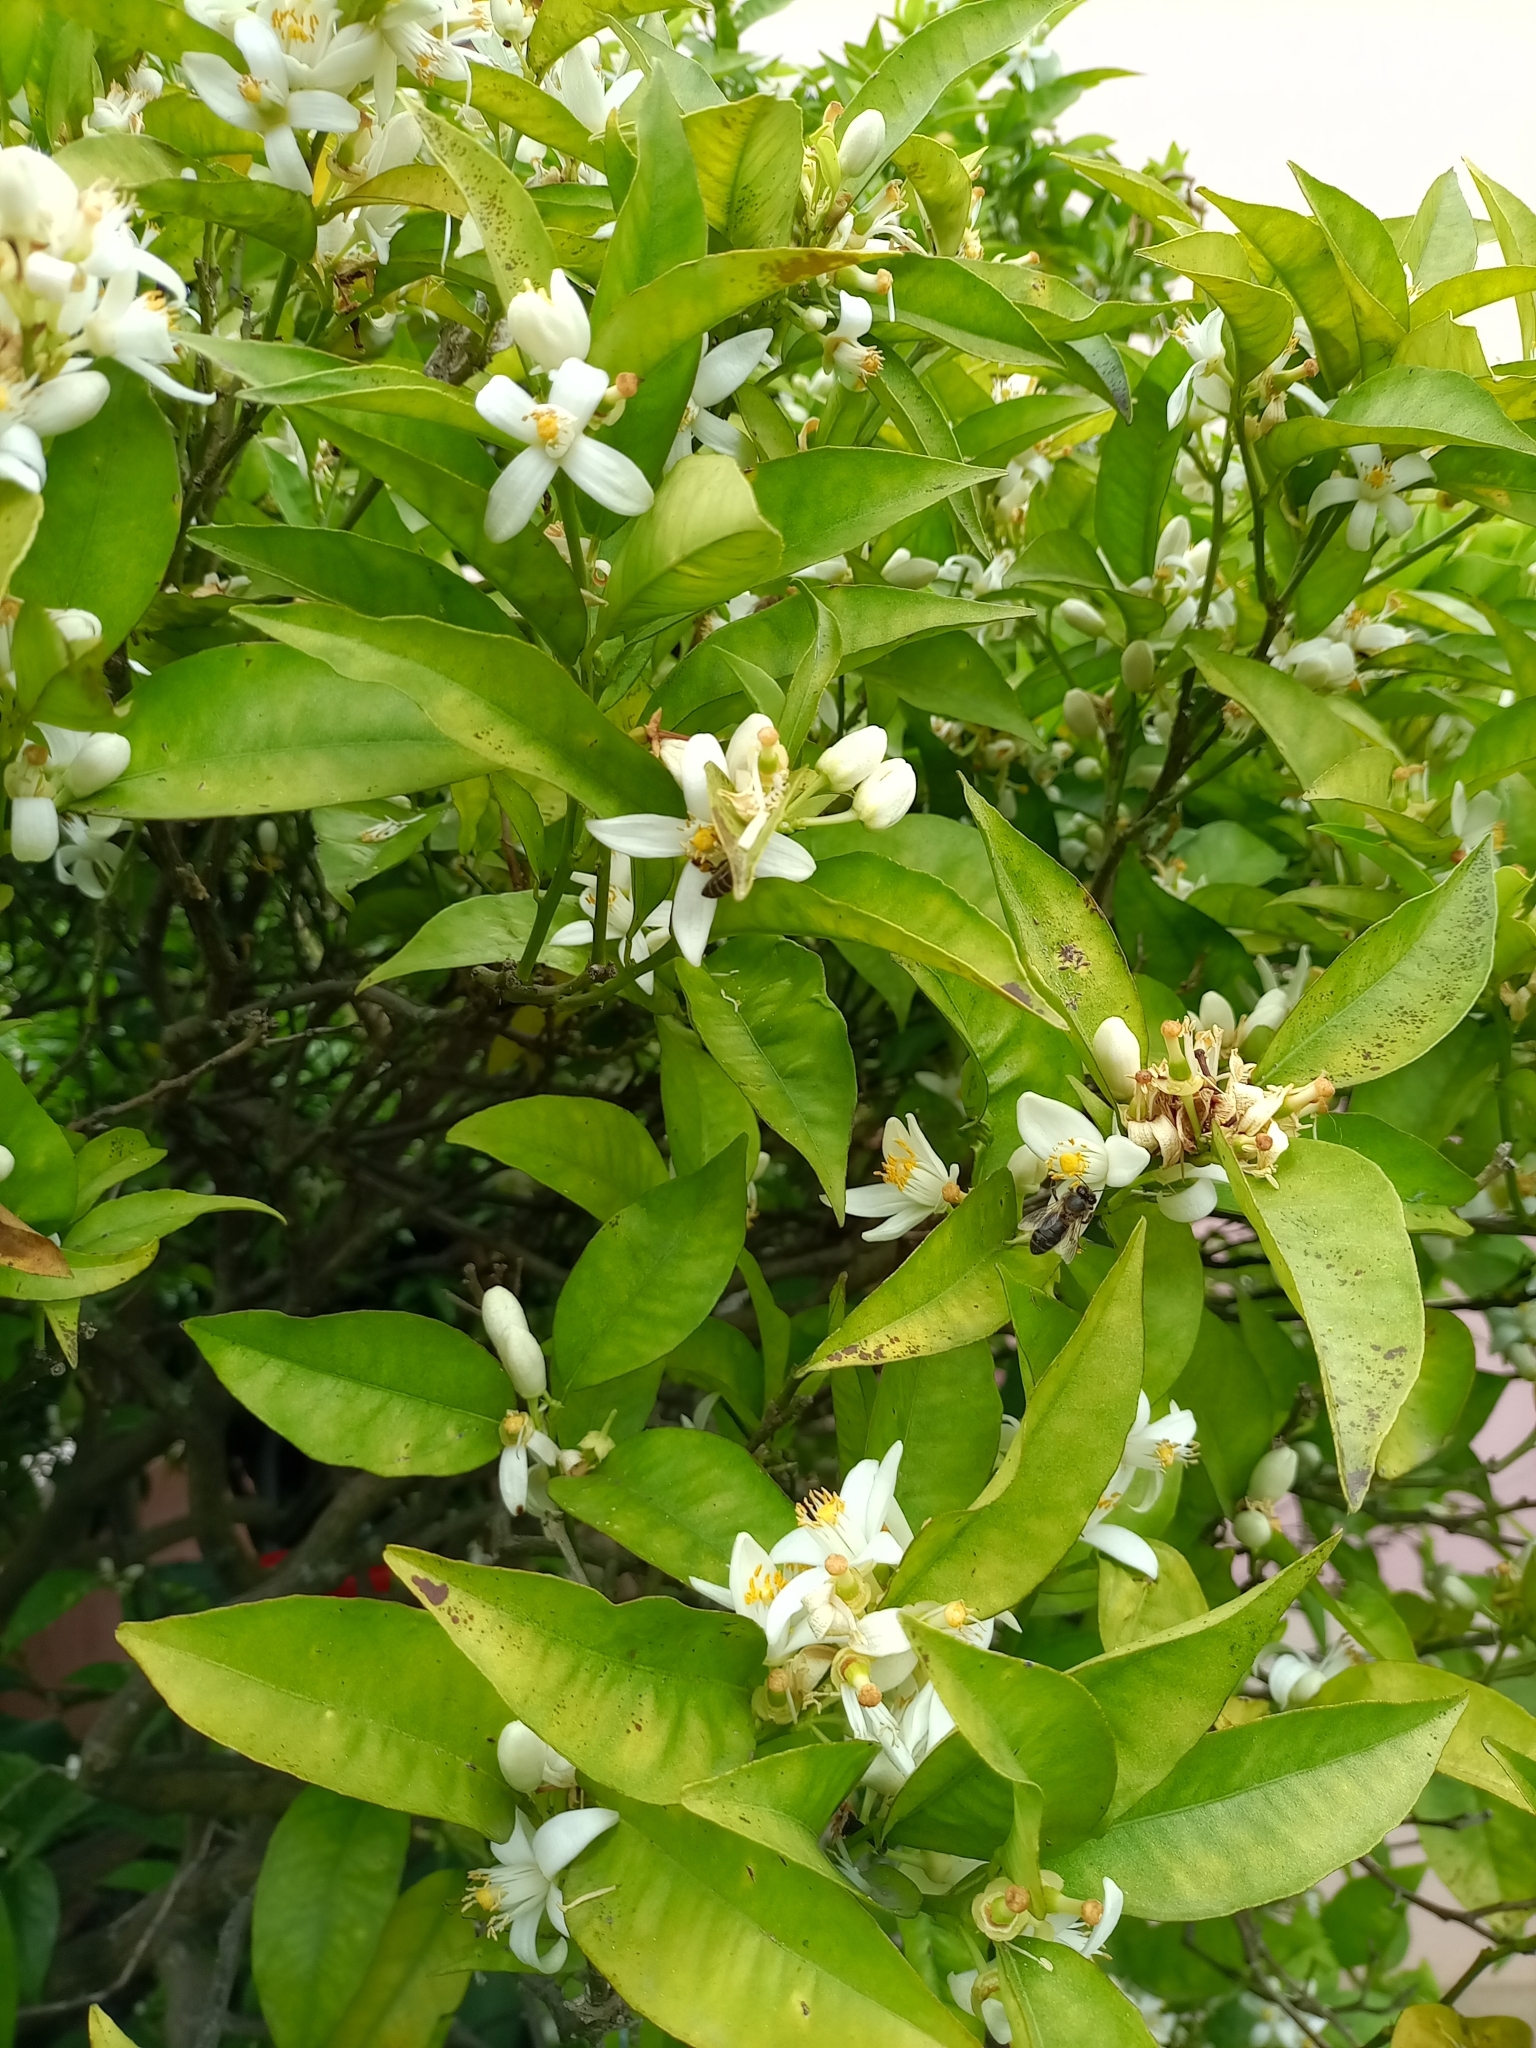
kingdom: Animalia
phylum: Arthropoda
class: Insecta
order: Hymenoptera
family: Apidae
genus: Apis
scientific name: Apis mellifera
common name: Honey bee
